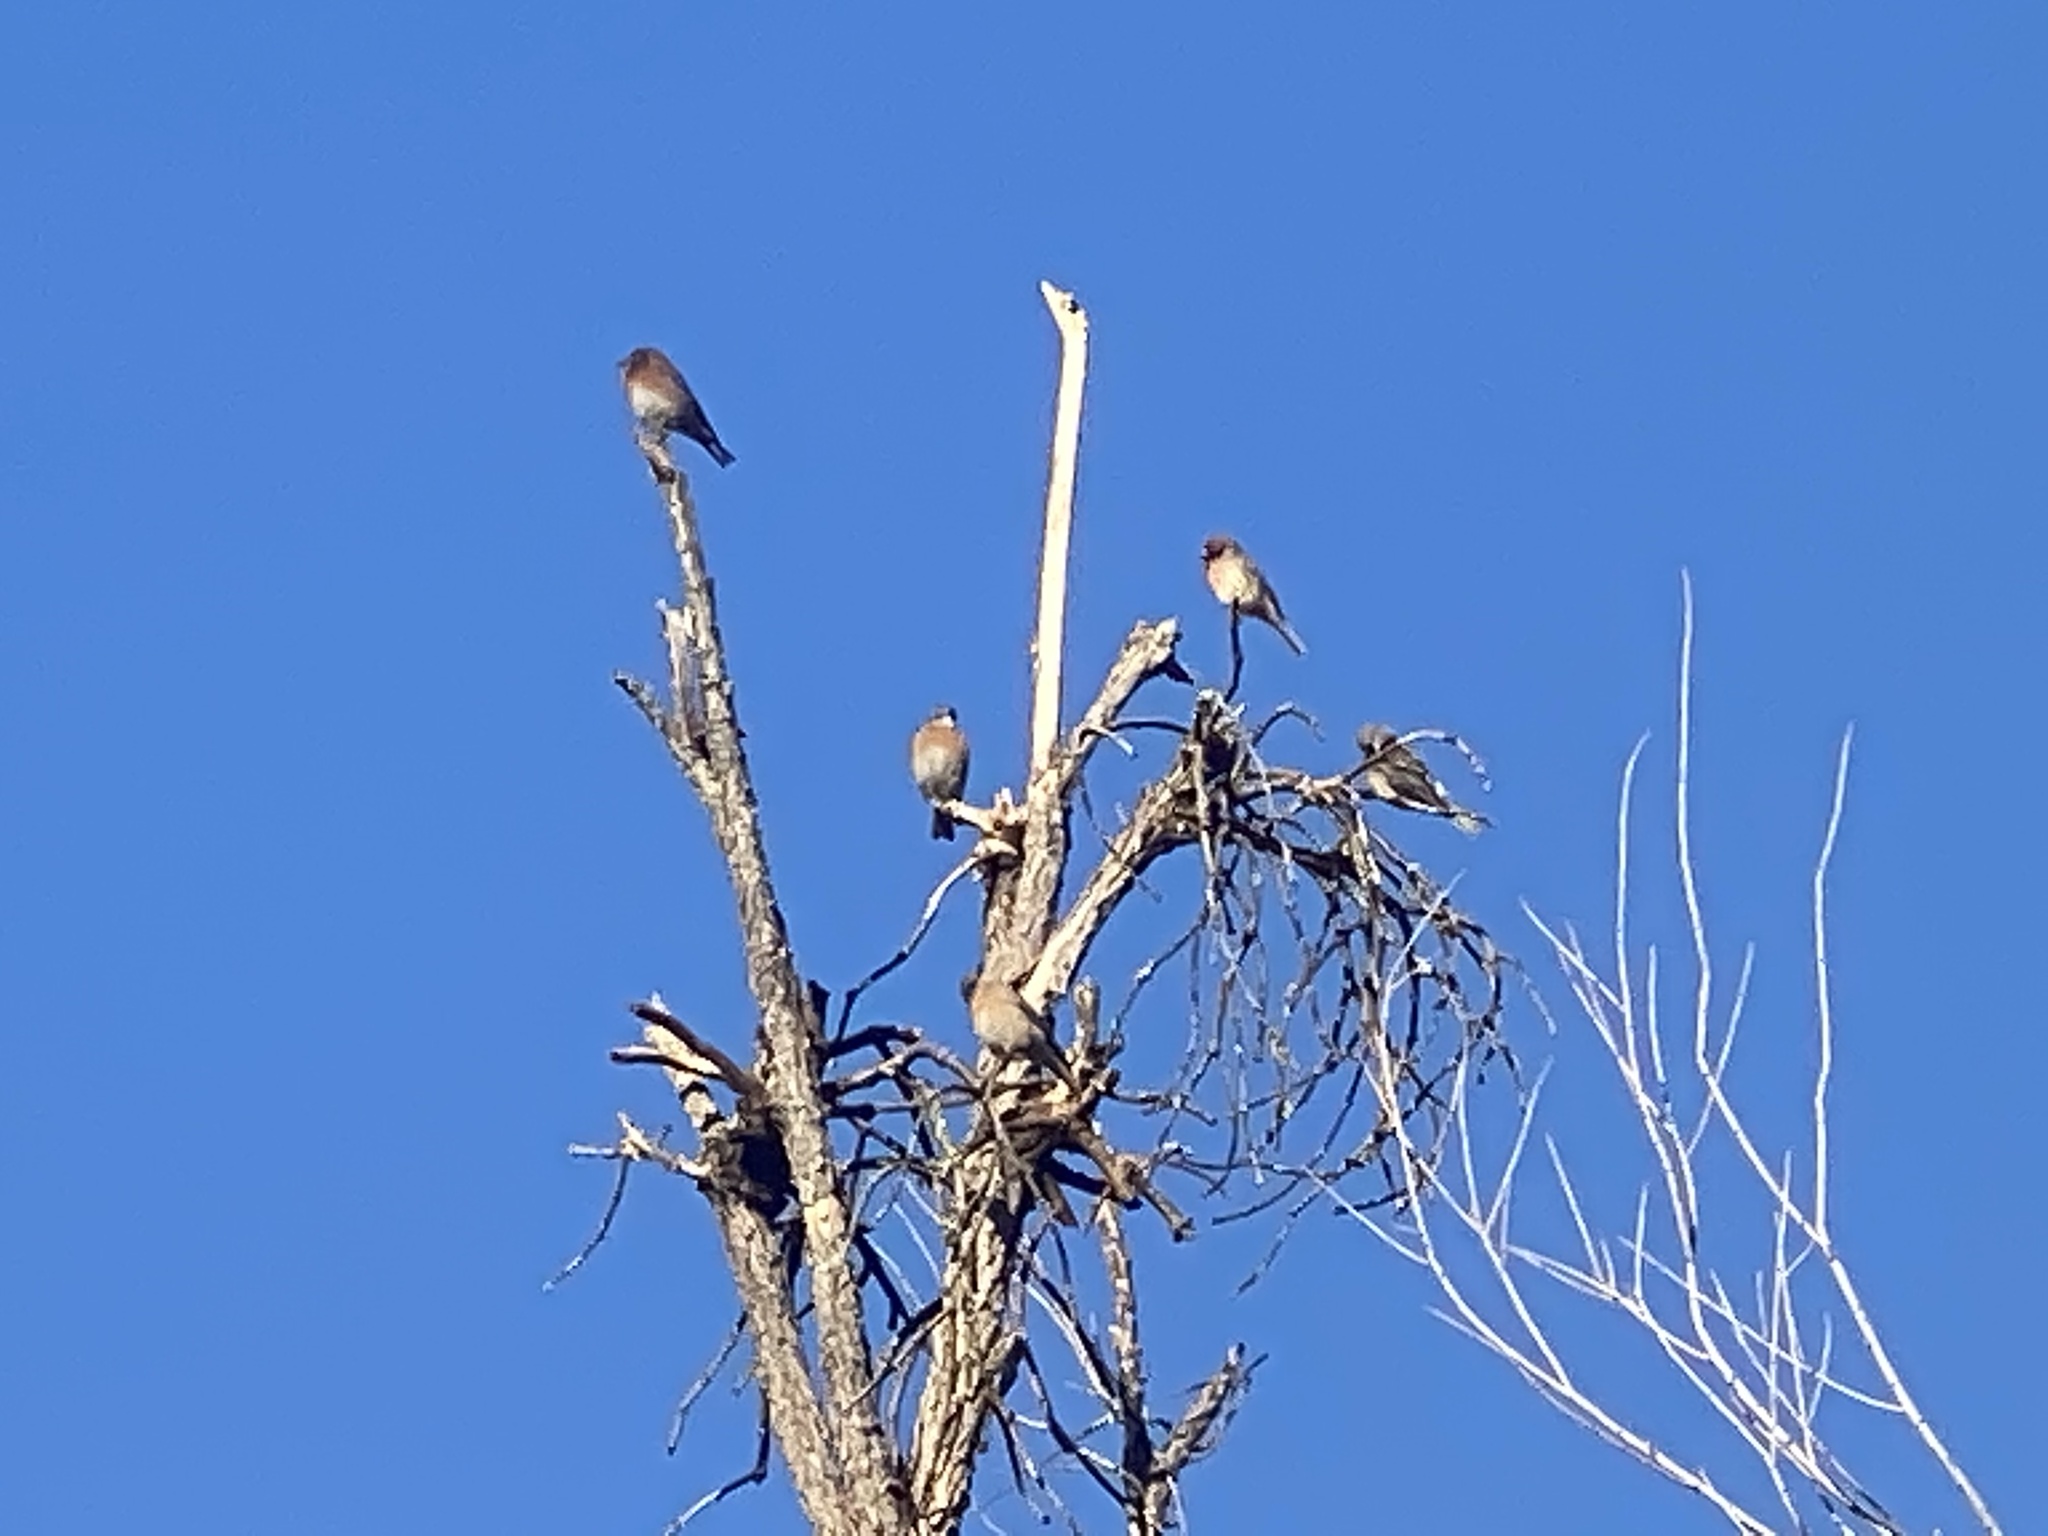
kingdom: Animalia
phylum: Chordata
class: Aves
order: Passeriformes
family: Turdidae
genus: Sialia
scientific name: Sialia mexicana
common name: Western bluebird
